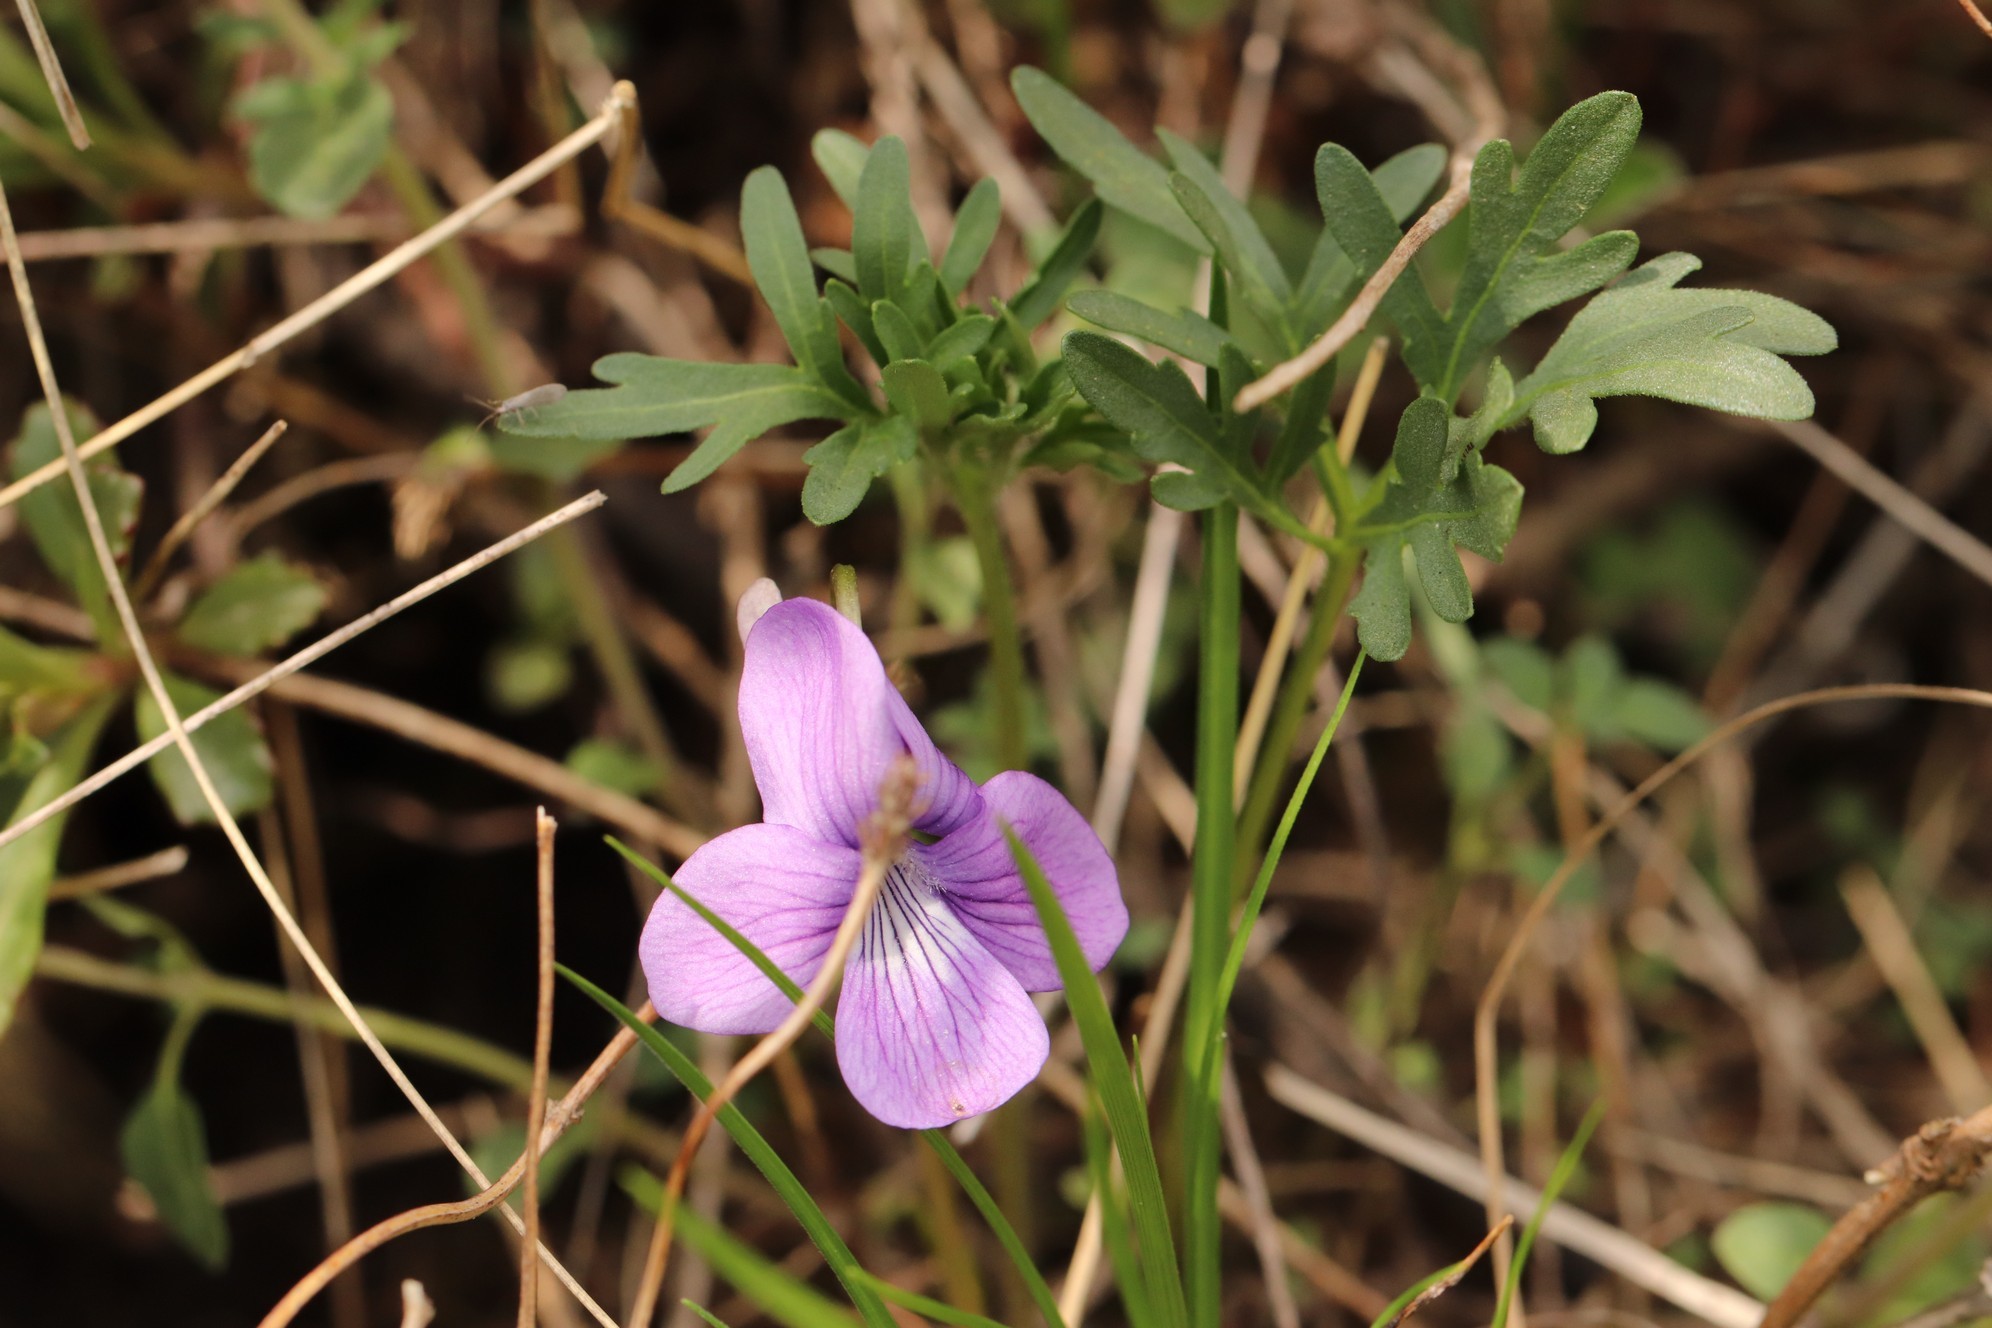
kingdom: Plantae
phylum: Tracheophyta
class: Magnoliopsida
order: Malpighiales
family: Violaceae
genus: Viola
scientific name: Viola multifida
